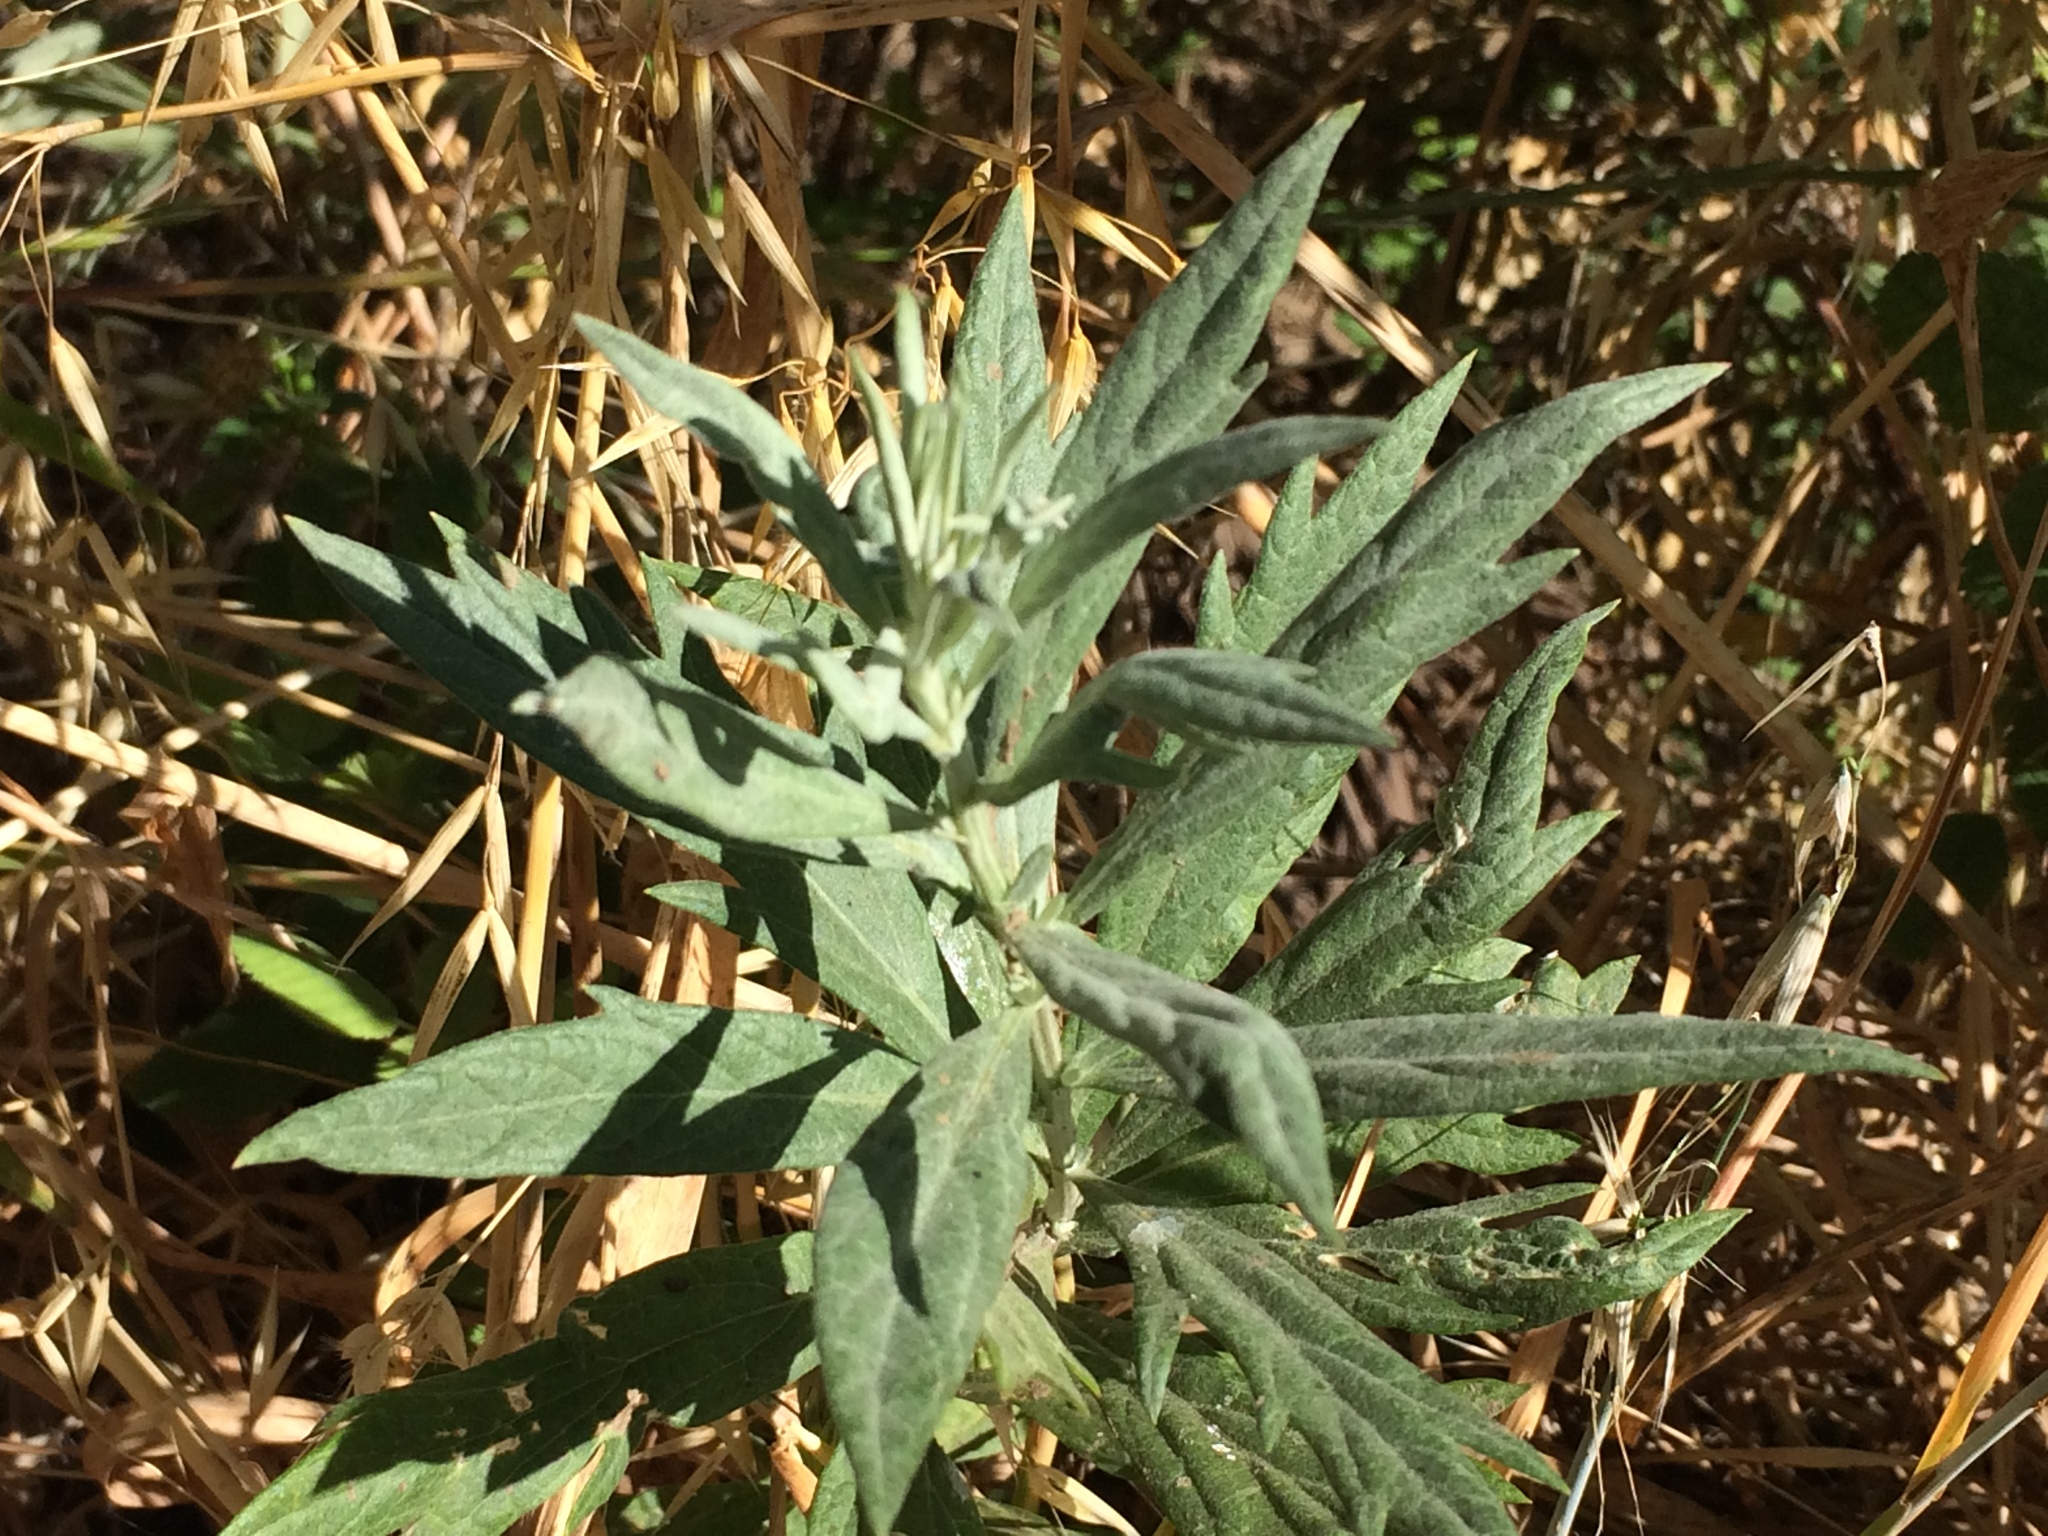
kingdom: Plantae
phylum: Tracheophyta
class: Magnoliopsida
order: Asterales
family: Asteraceae
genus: Artemisia
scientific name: Artemisia douglasiana
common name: Northwest mugwort
